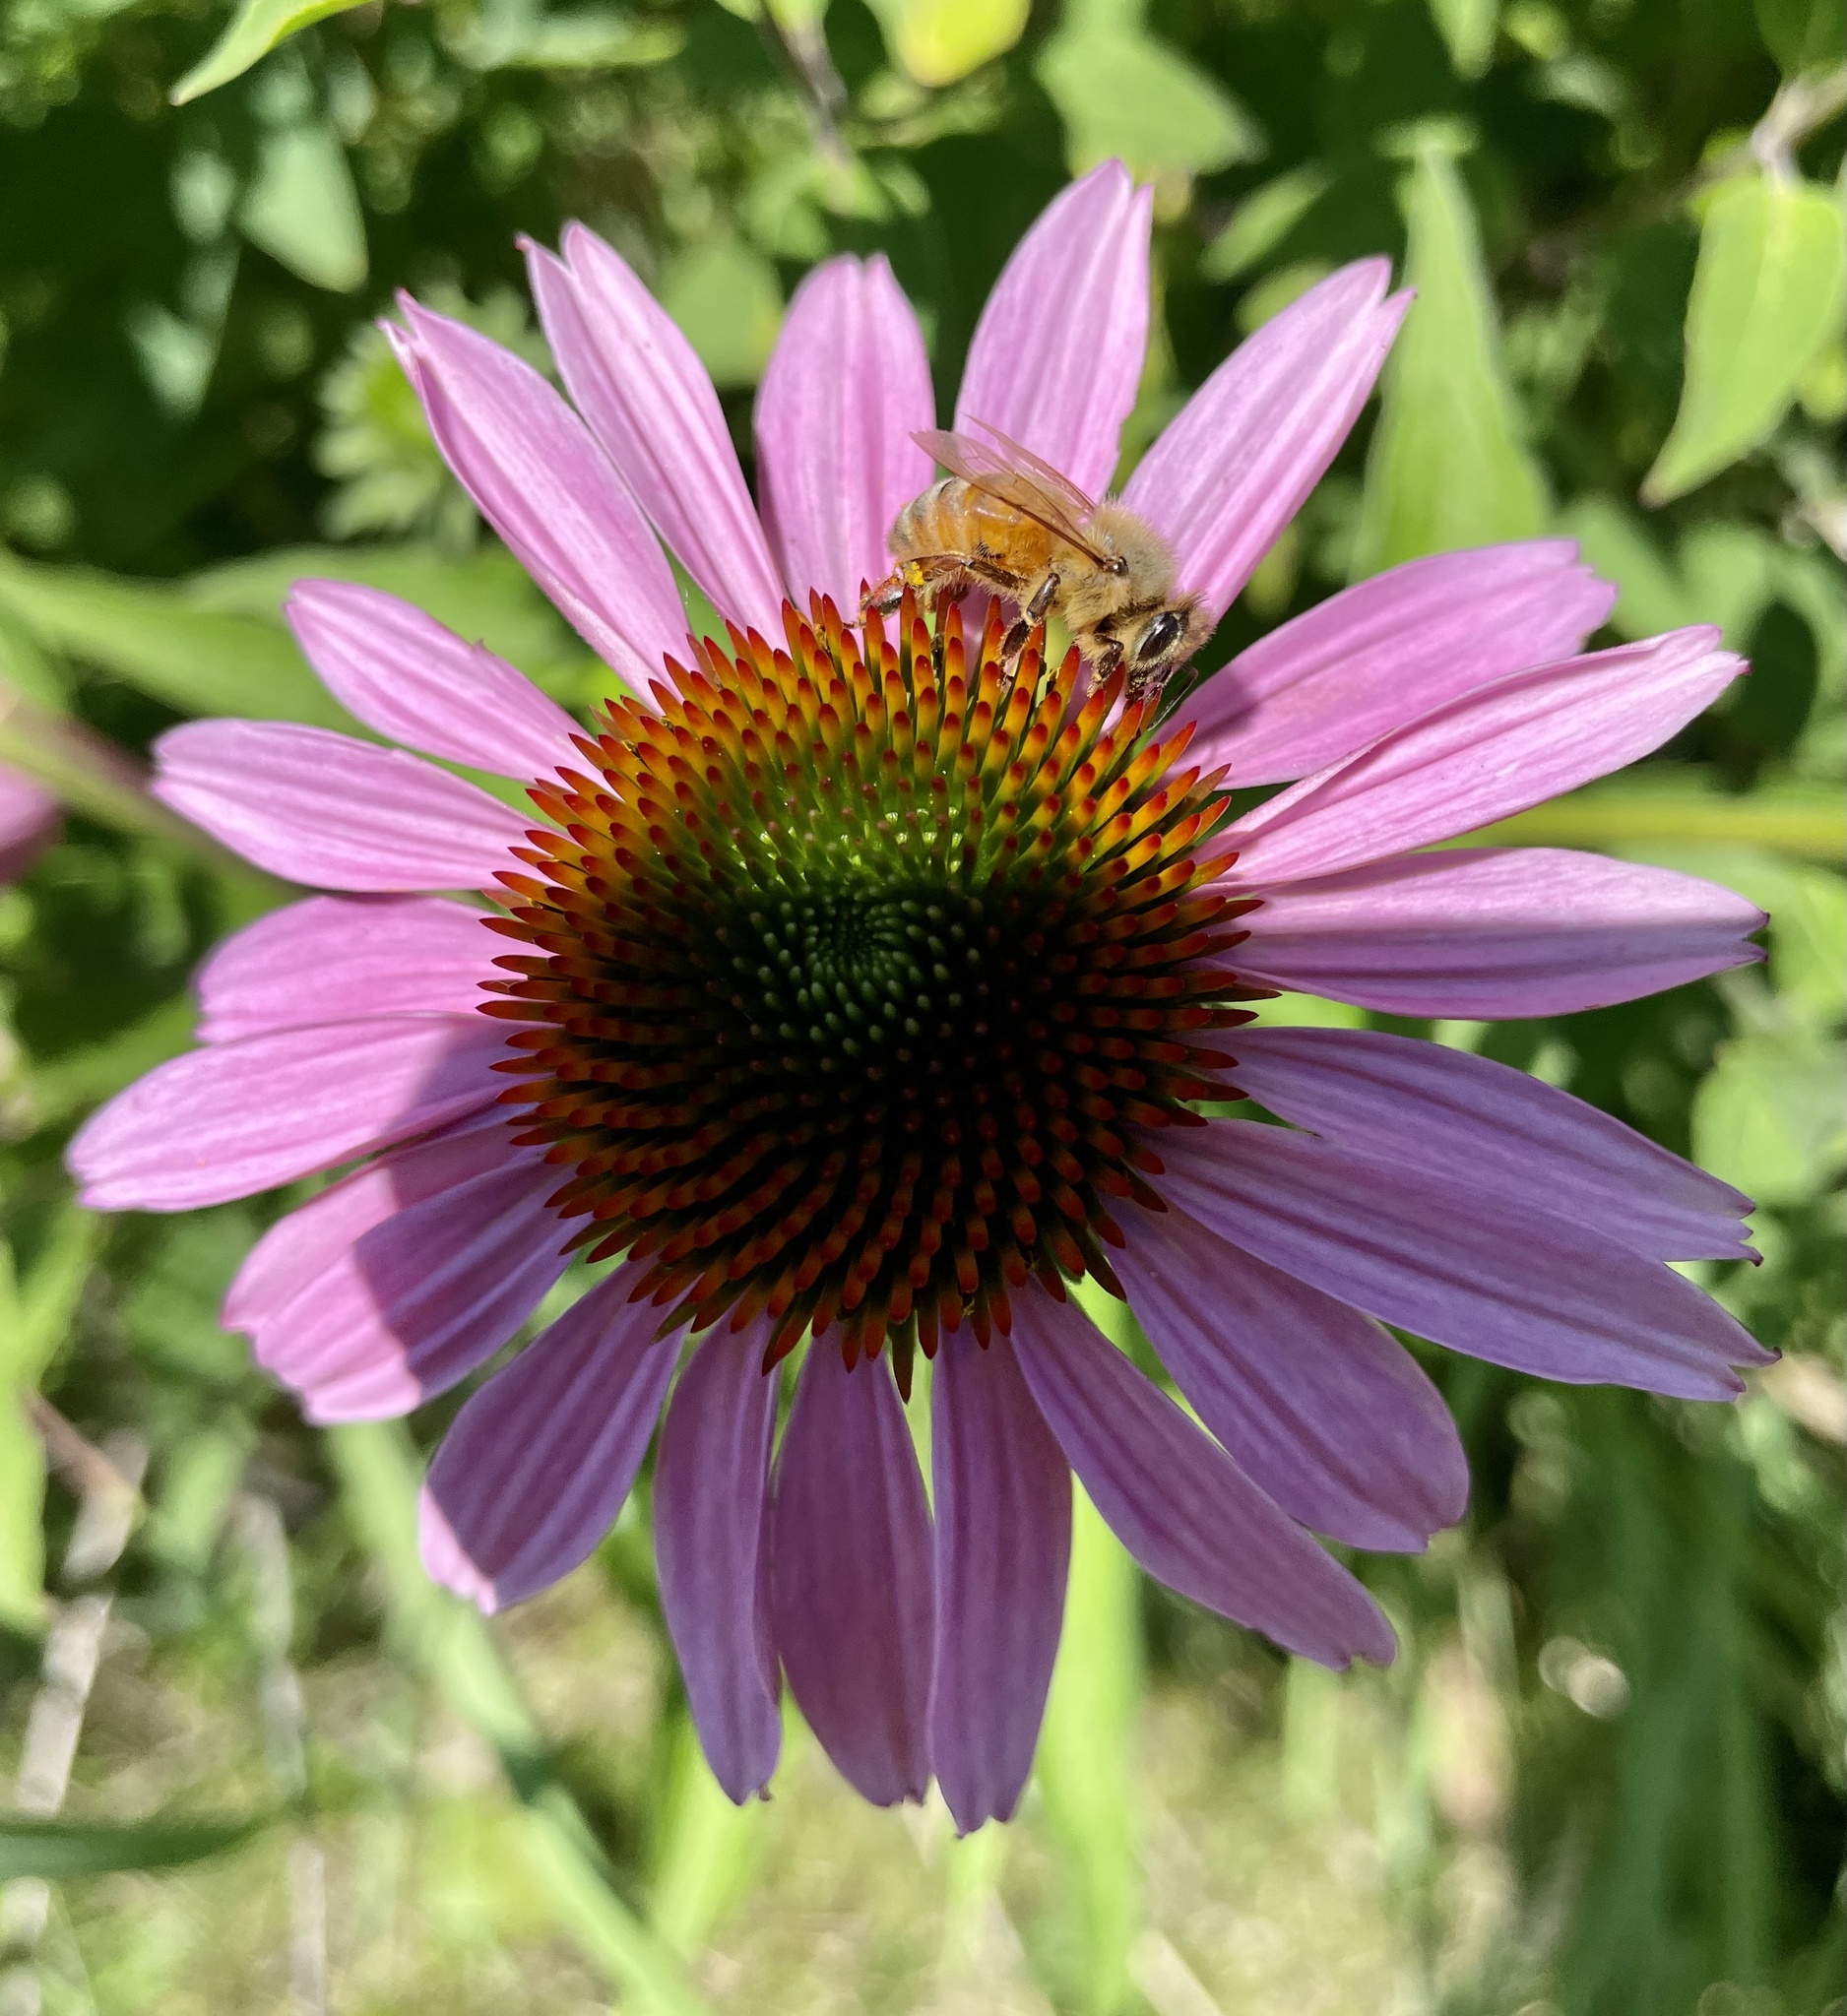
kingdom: Animalia
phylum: Arthropoda
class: Insecta
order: Hymenoptera
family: Apidae
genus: Apis
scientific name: Apis mellifera
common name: Honey bee
